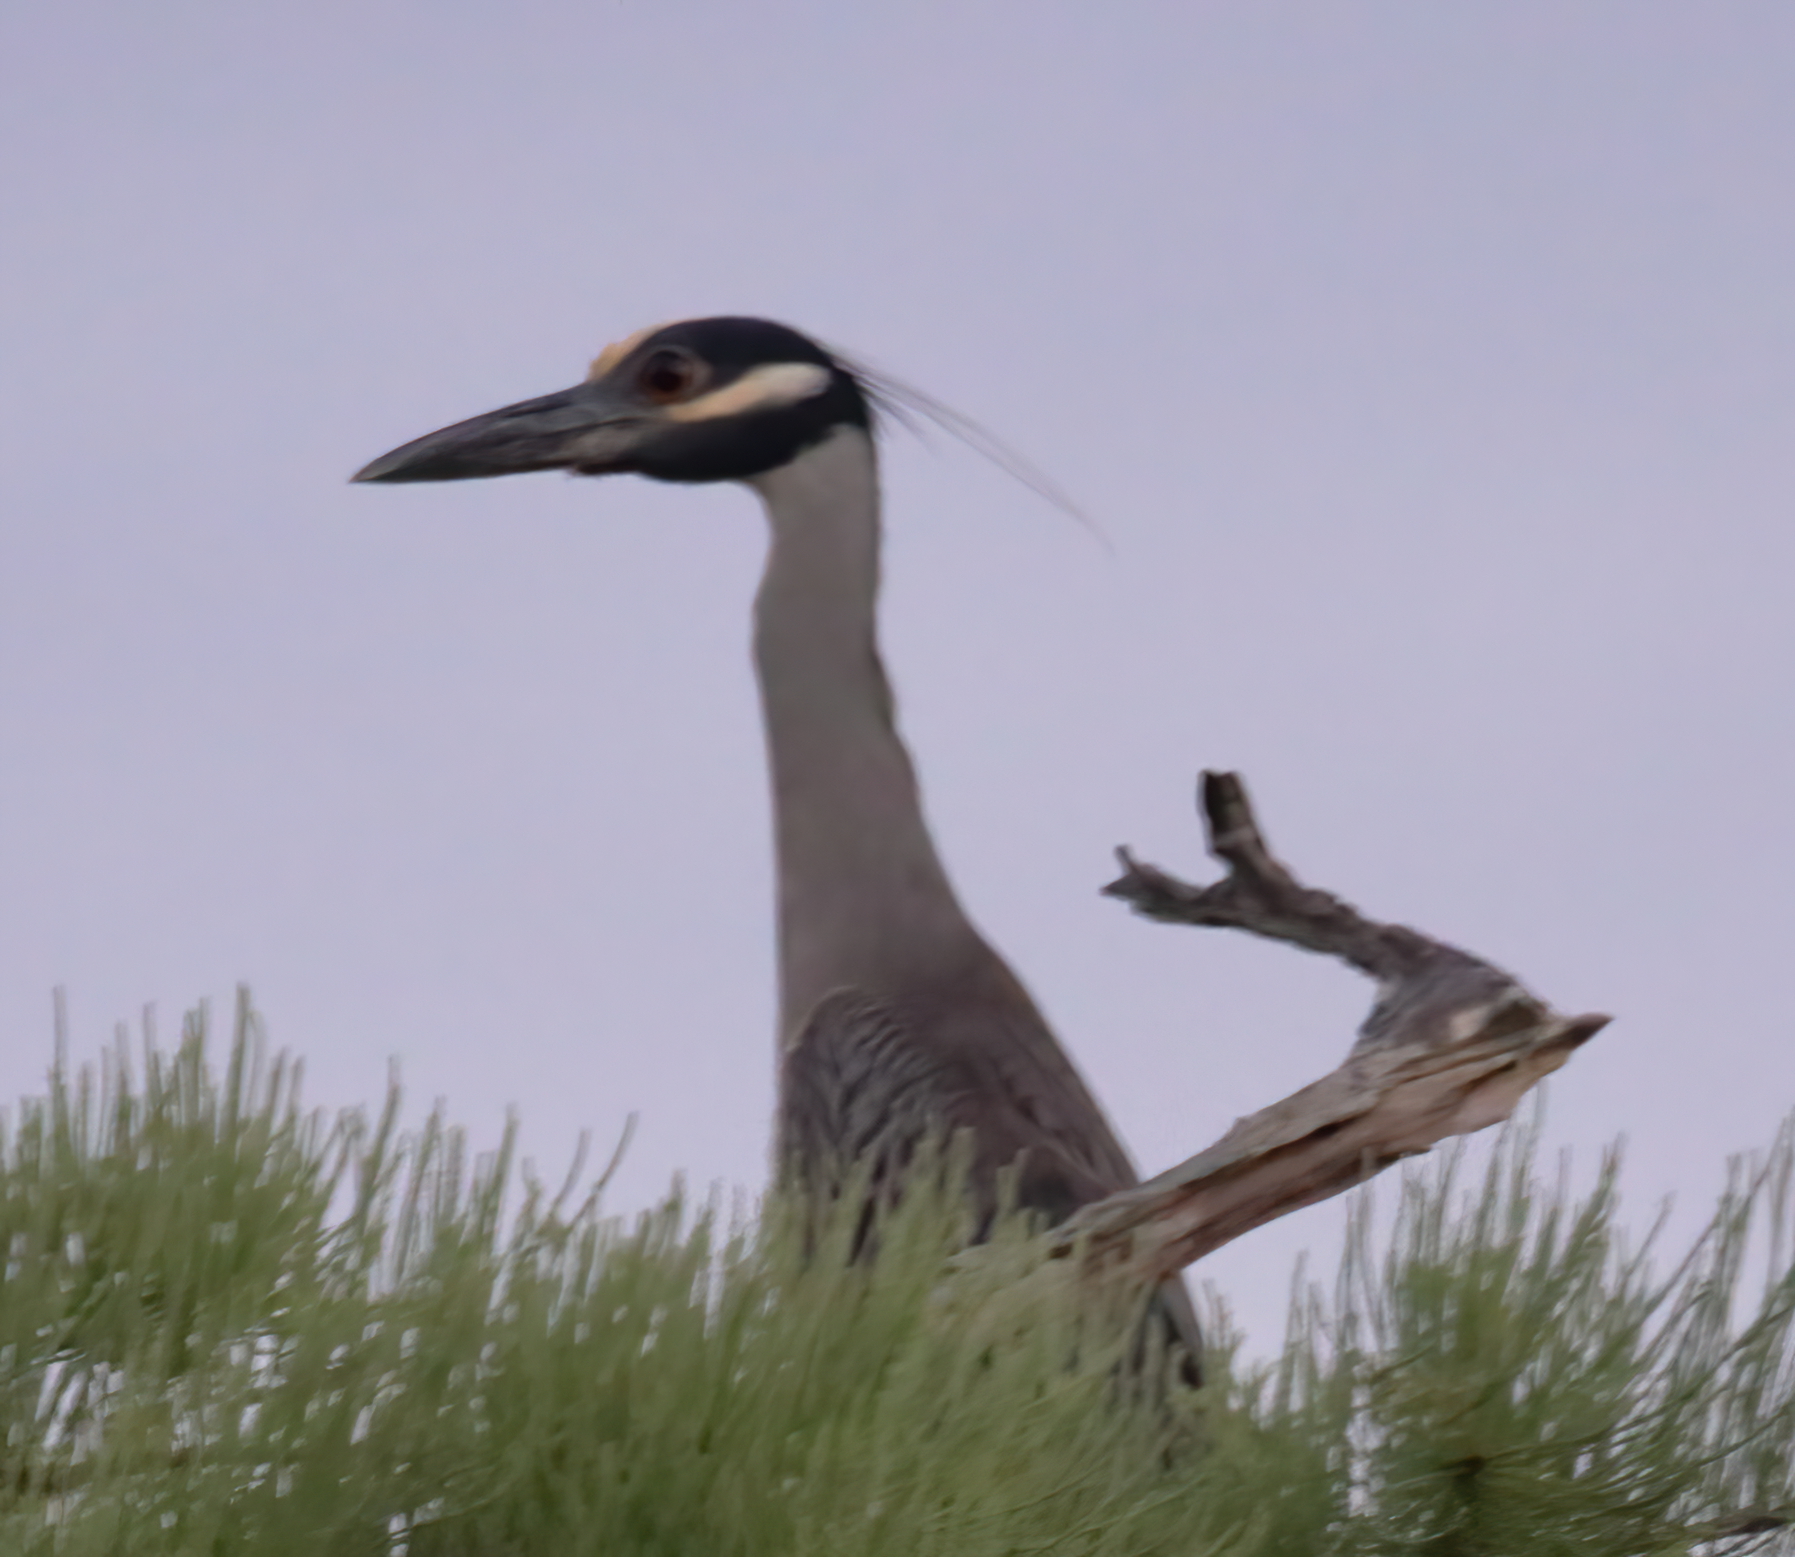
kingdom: Animalia
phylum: Chordata
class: Aves
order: Pelecaniformes
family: Ardeidae
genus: Nyctanassa
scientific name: Nyctanassa violacea
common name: Yellow-crowned night heron
